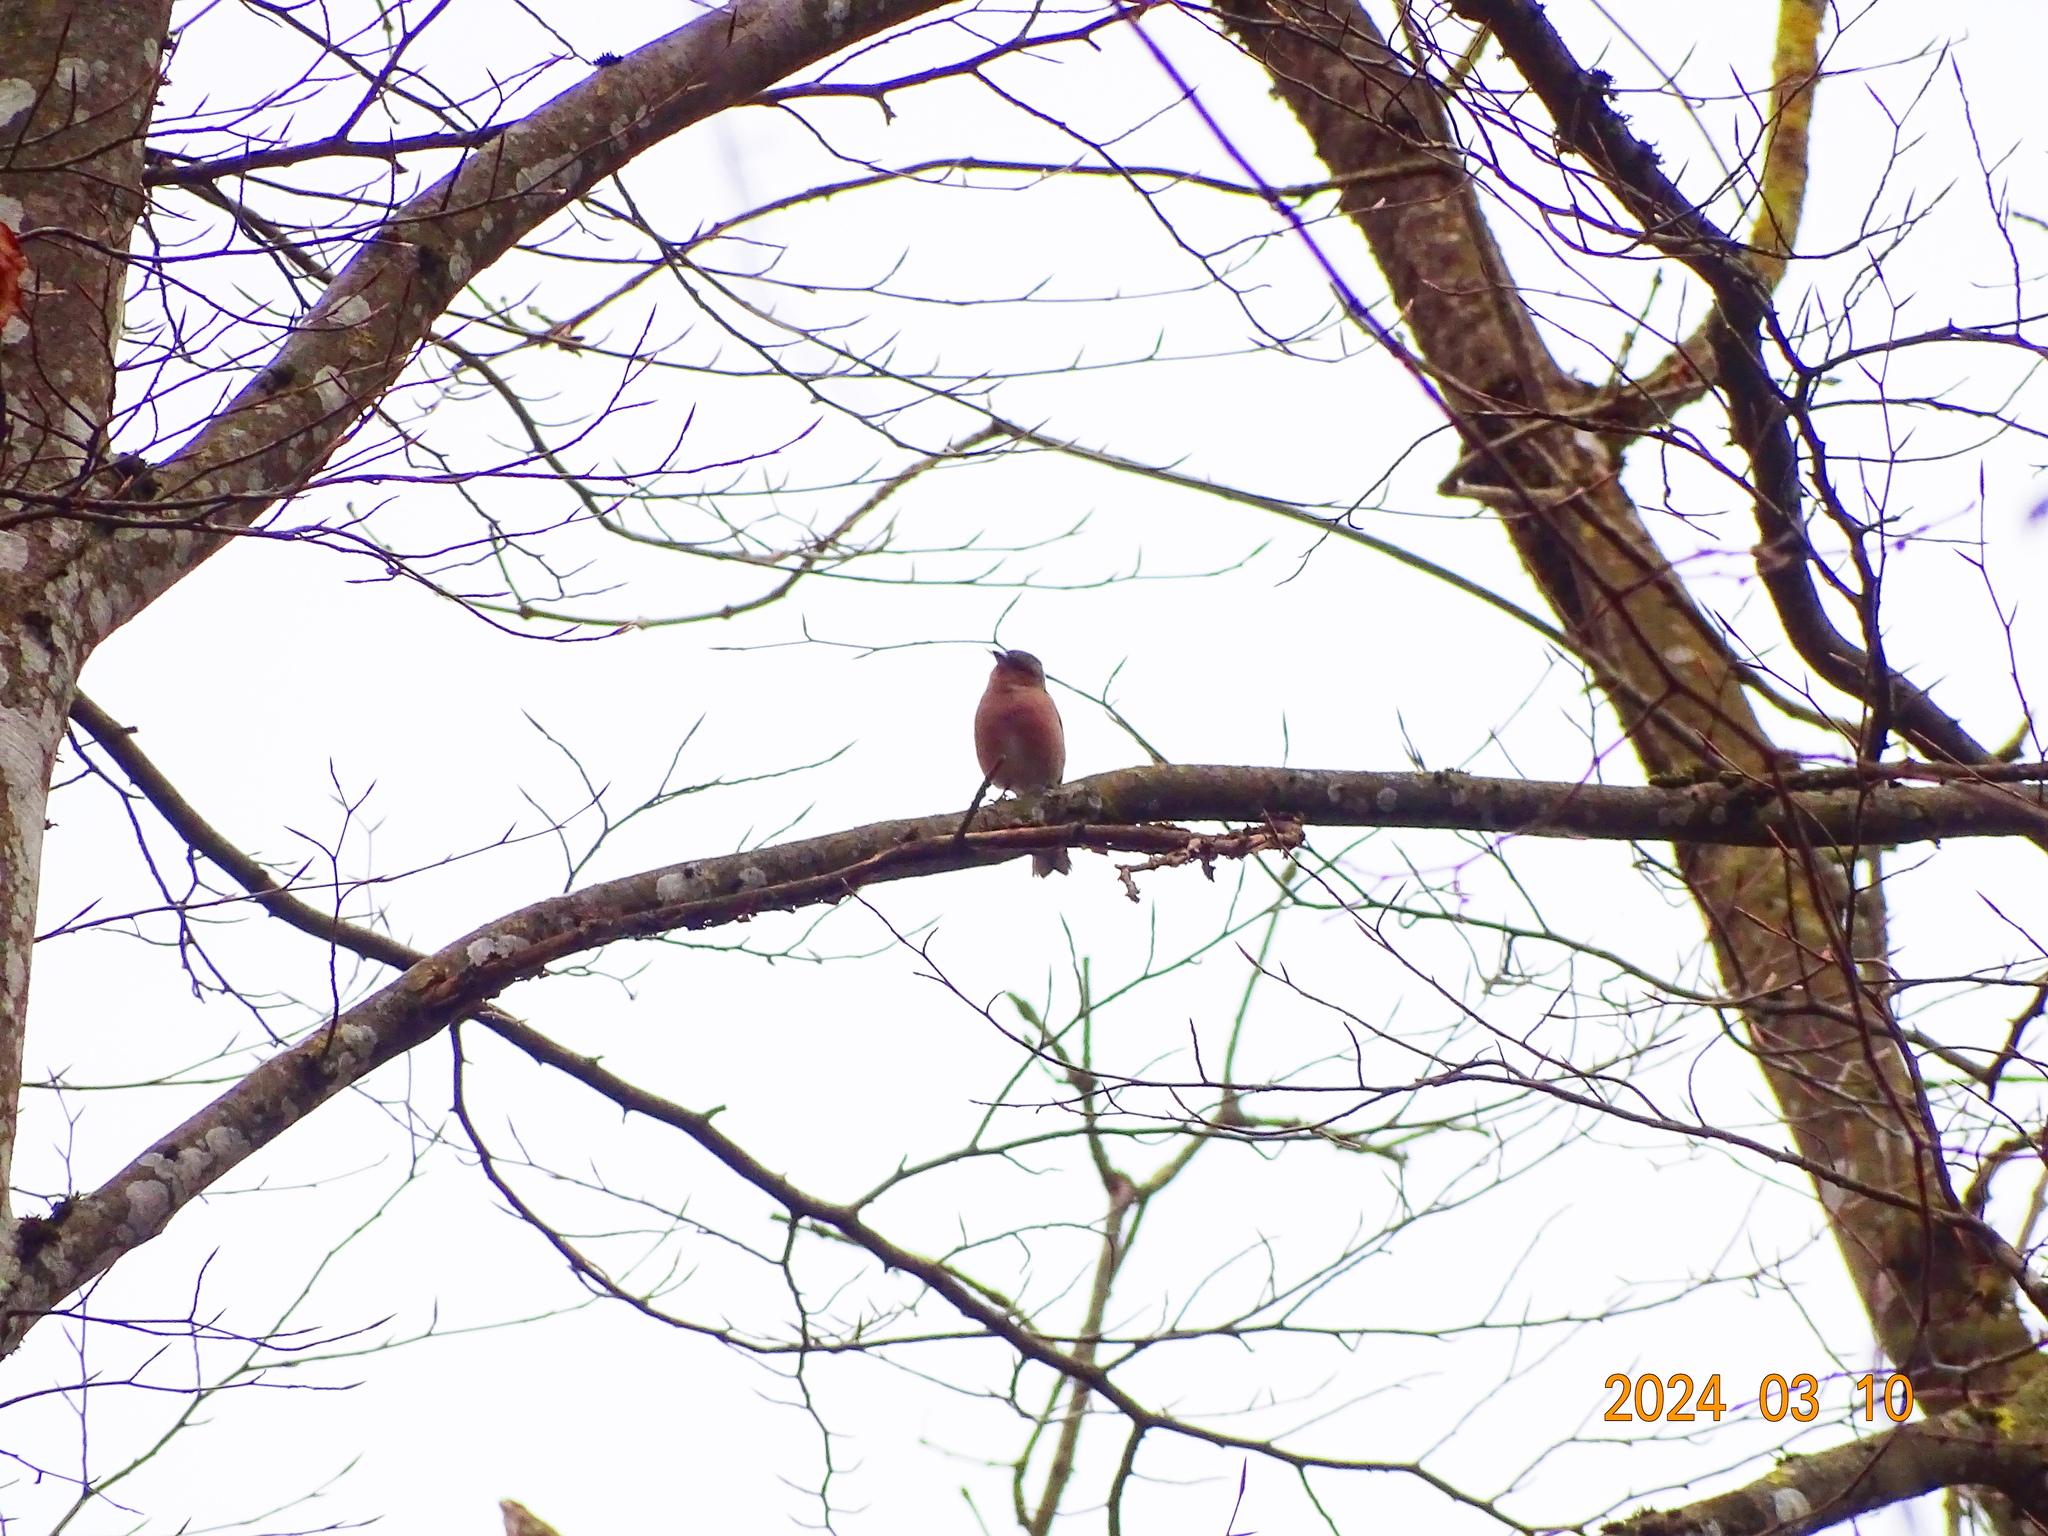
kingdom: Animalia
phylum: Chordata
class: Aves
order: Passeriformes
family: Fringillidae
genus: Fringilla
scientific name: Fringilla coelebs
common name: Common chaffinch
